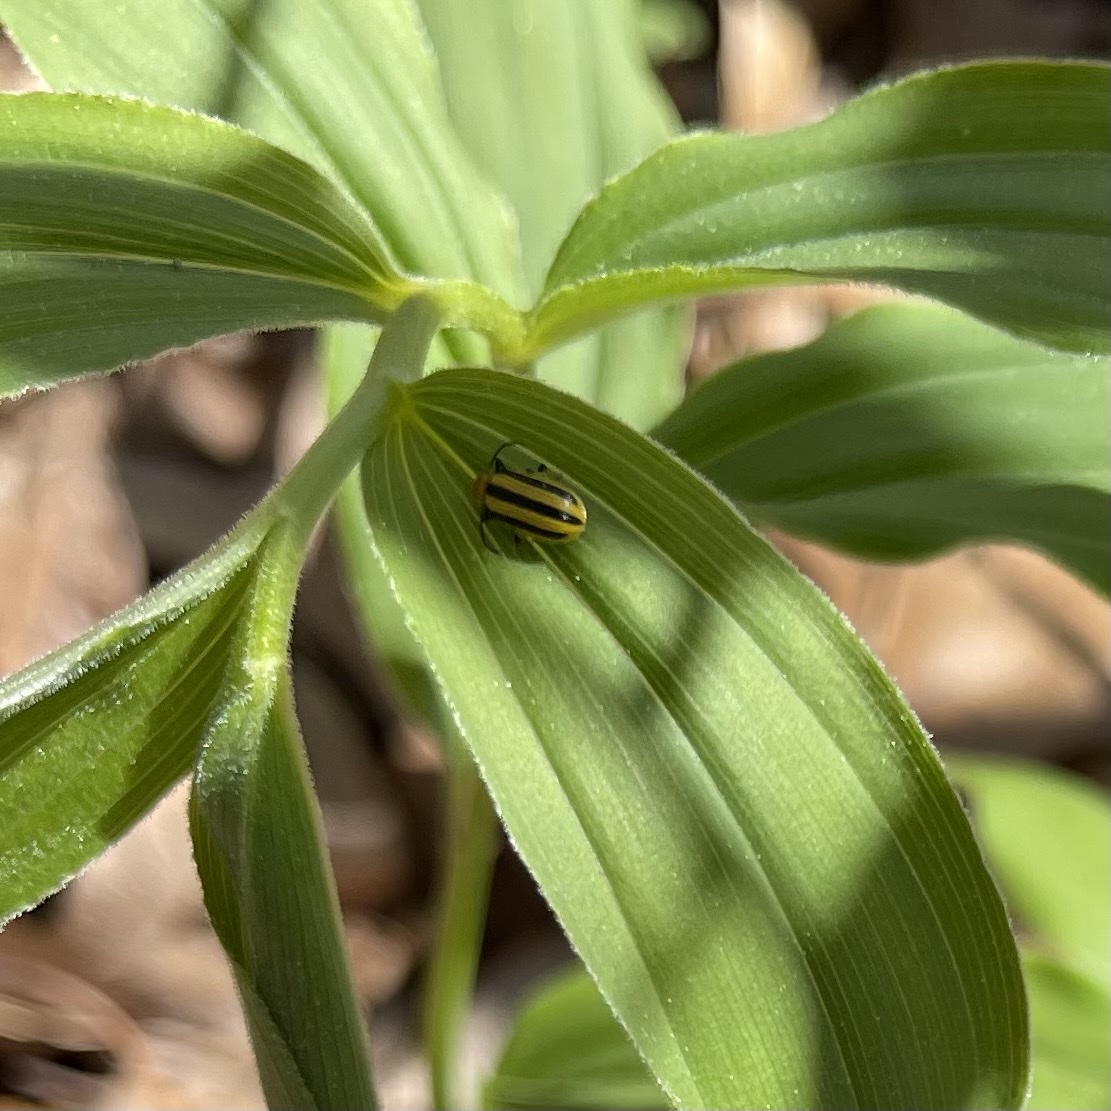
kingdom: Animalia
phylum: Arthropoda
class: Insecta
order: Coleoptera
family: Chrysomelidae
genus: Acalymma
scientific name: Acalymma vittatum
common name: Striped cucumber beetle
